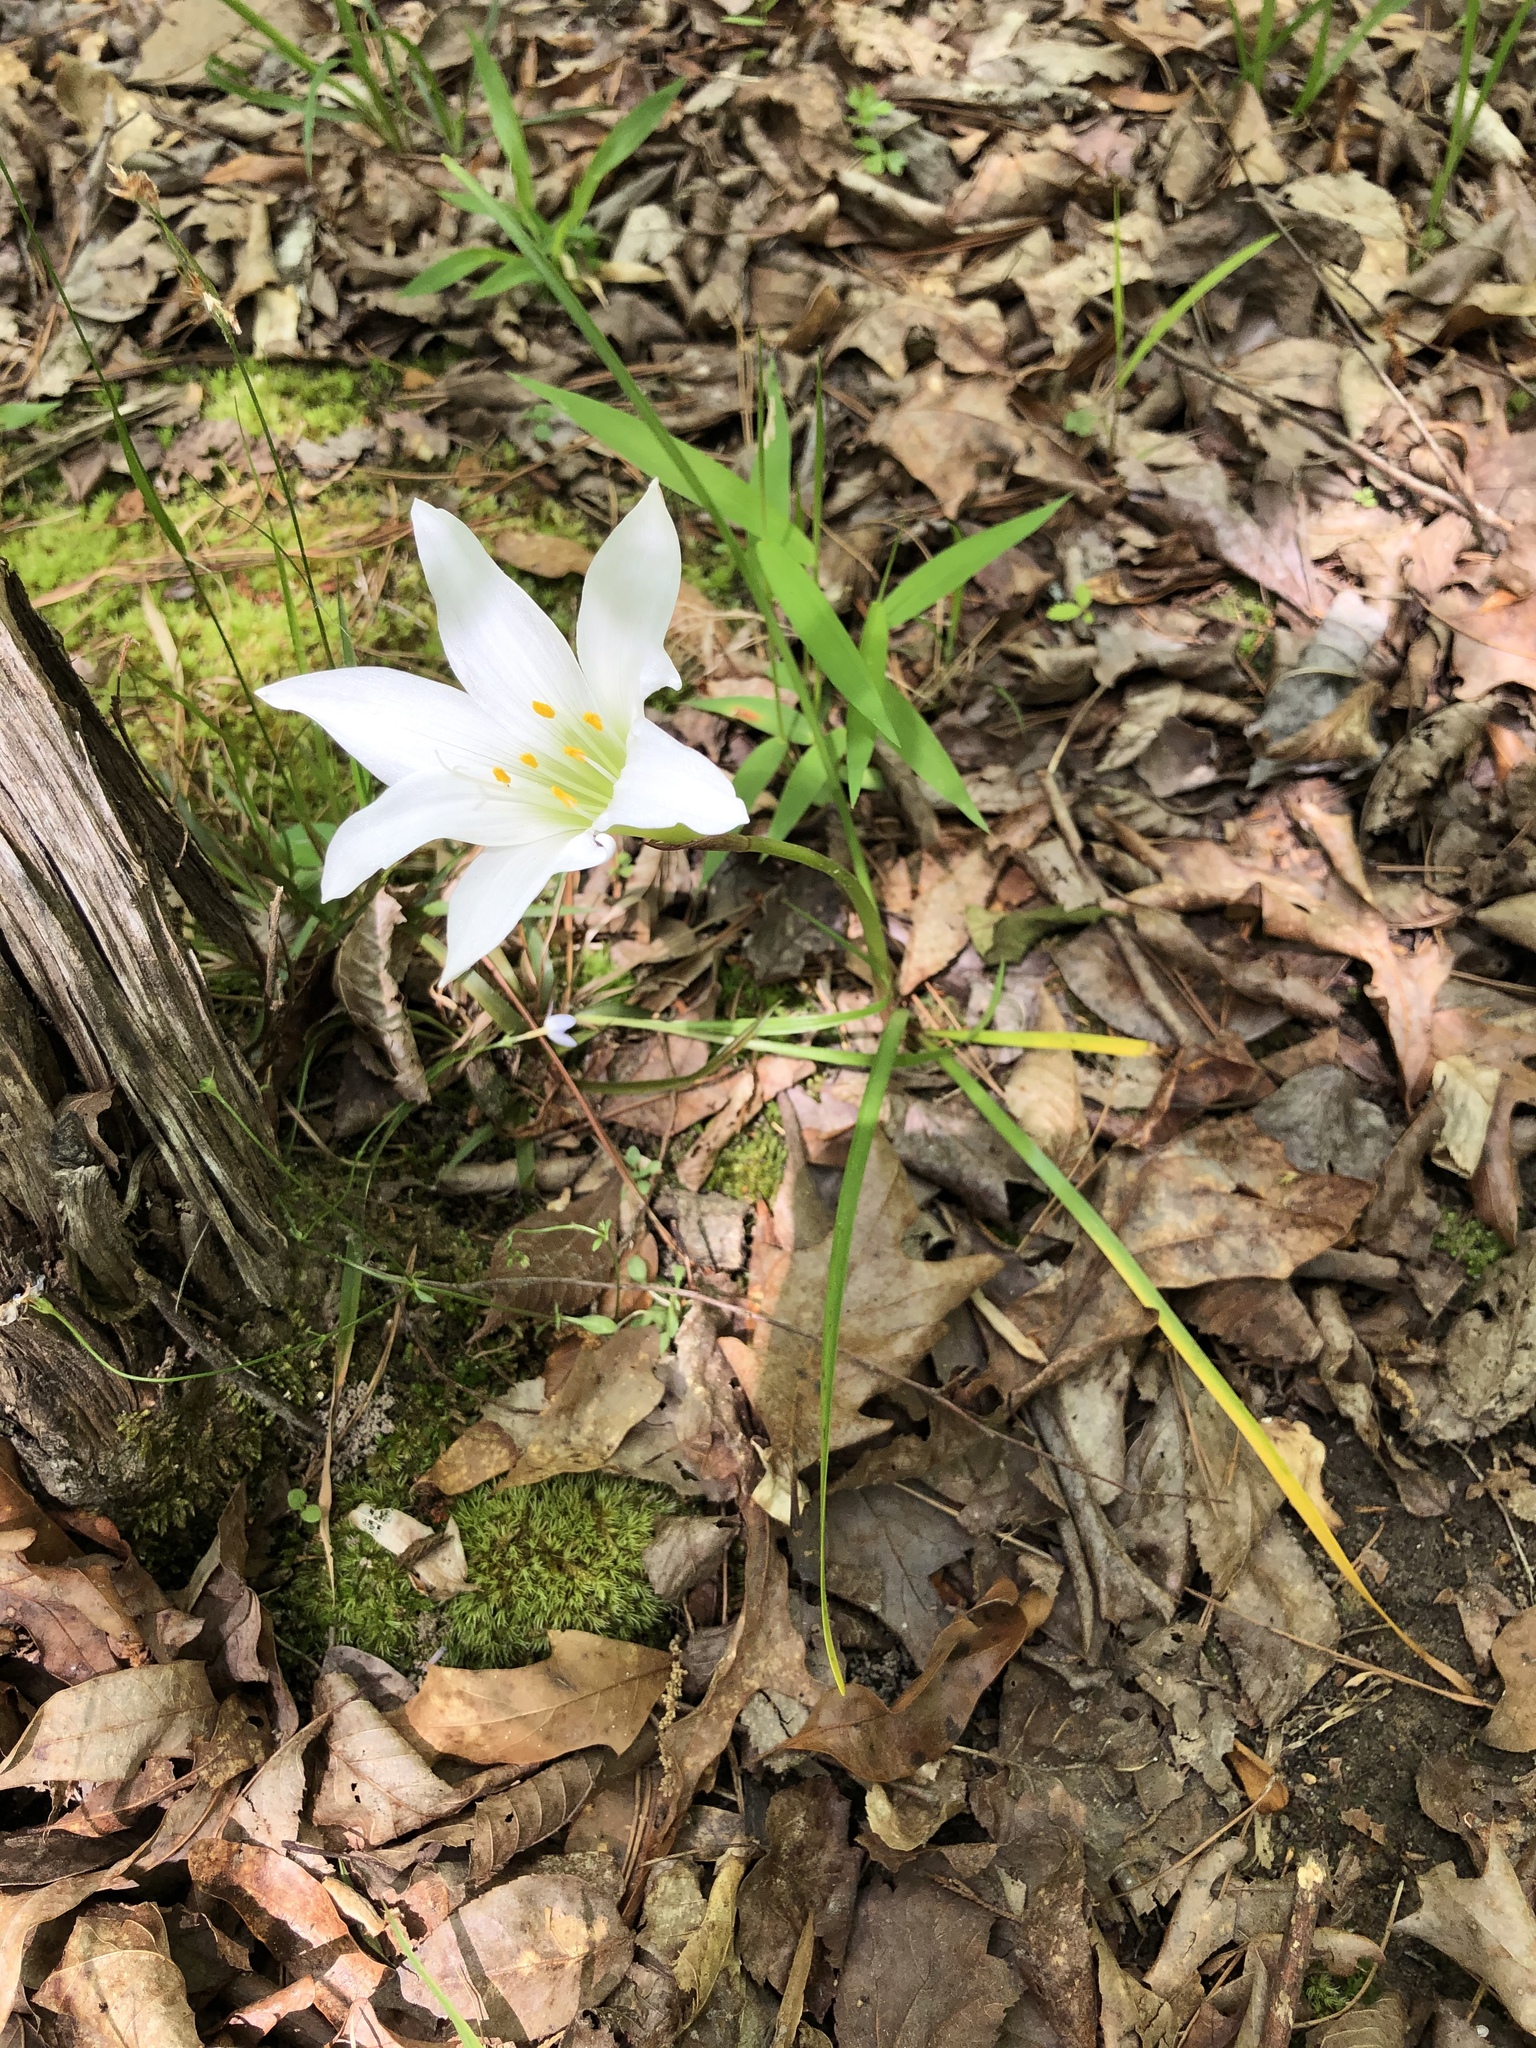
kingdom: Plantae
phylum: Tracheophyta
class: Liliopsida
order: Asparagales
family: Amaryllidaceae
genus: Zephyranthes
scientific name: Zephyranthes atamasco
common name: Atamasco lily
